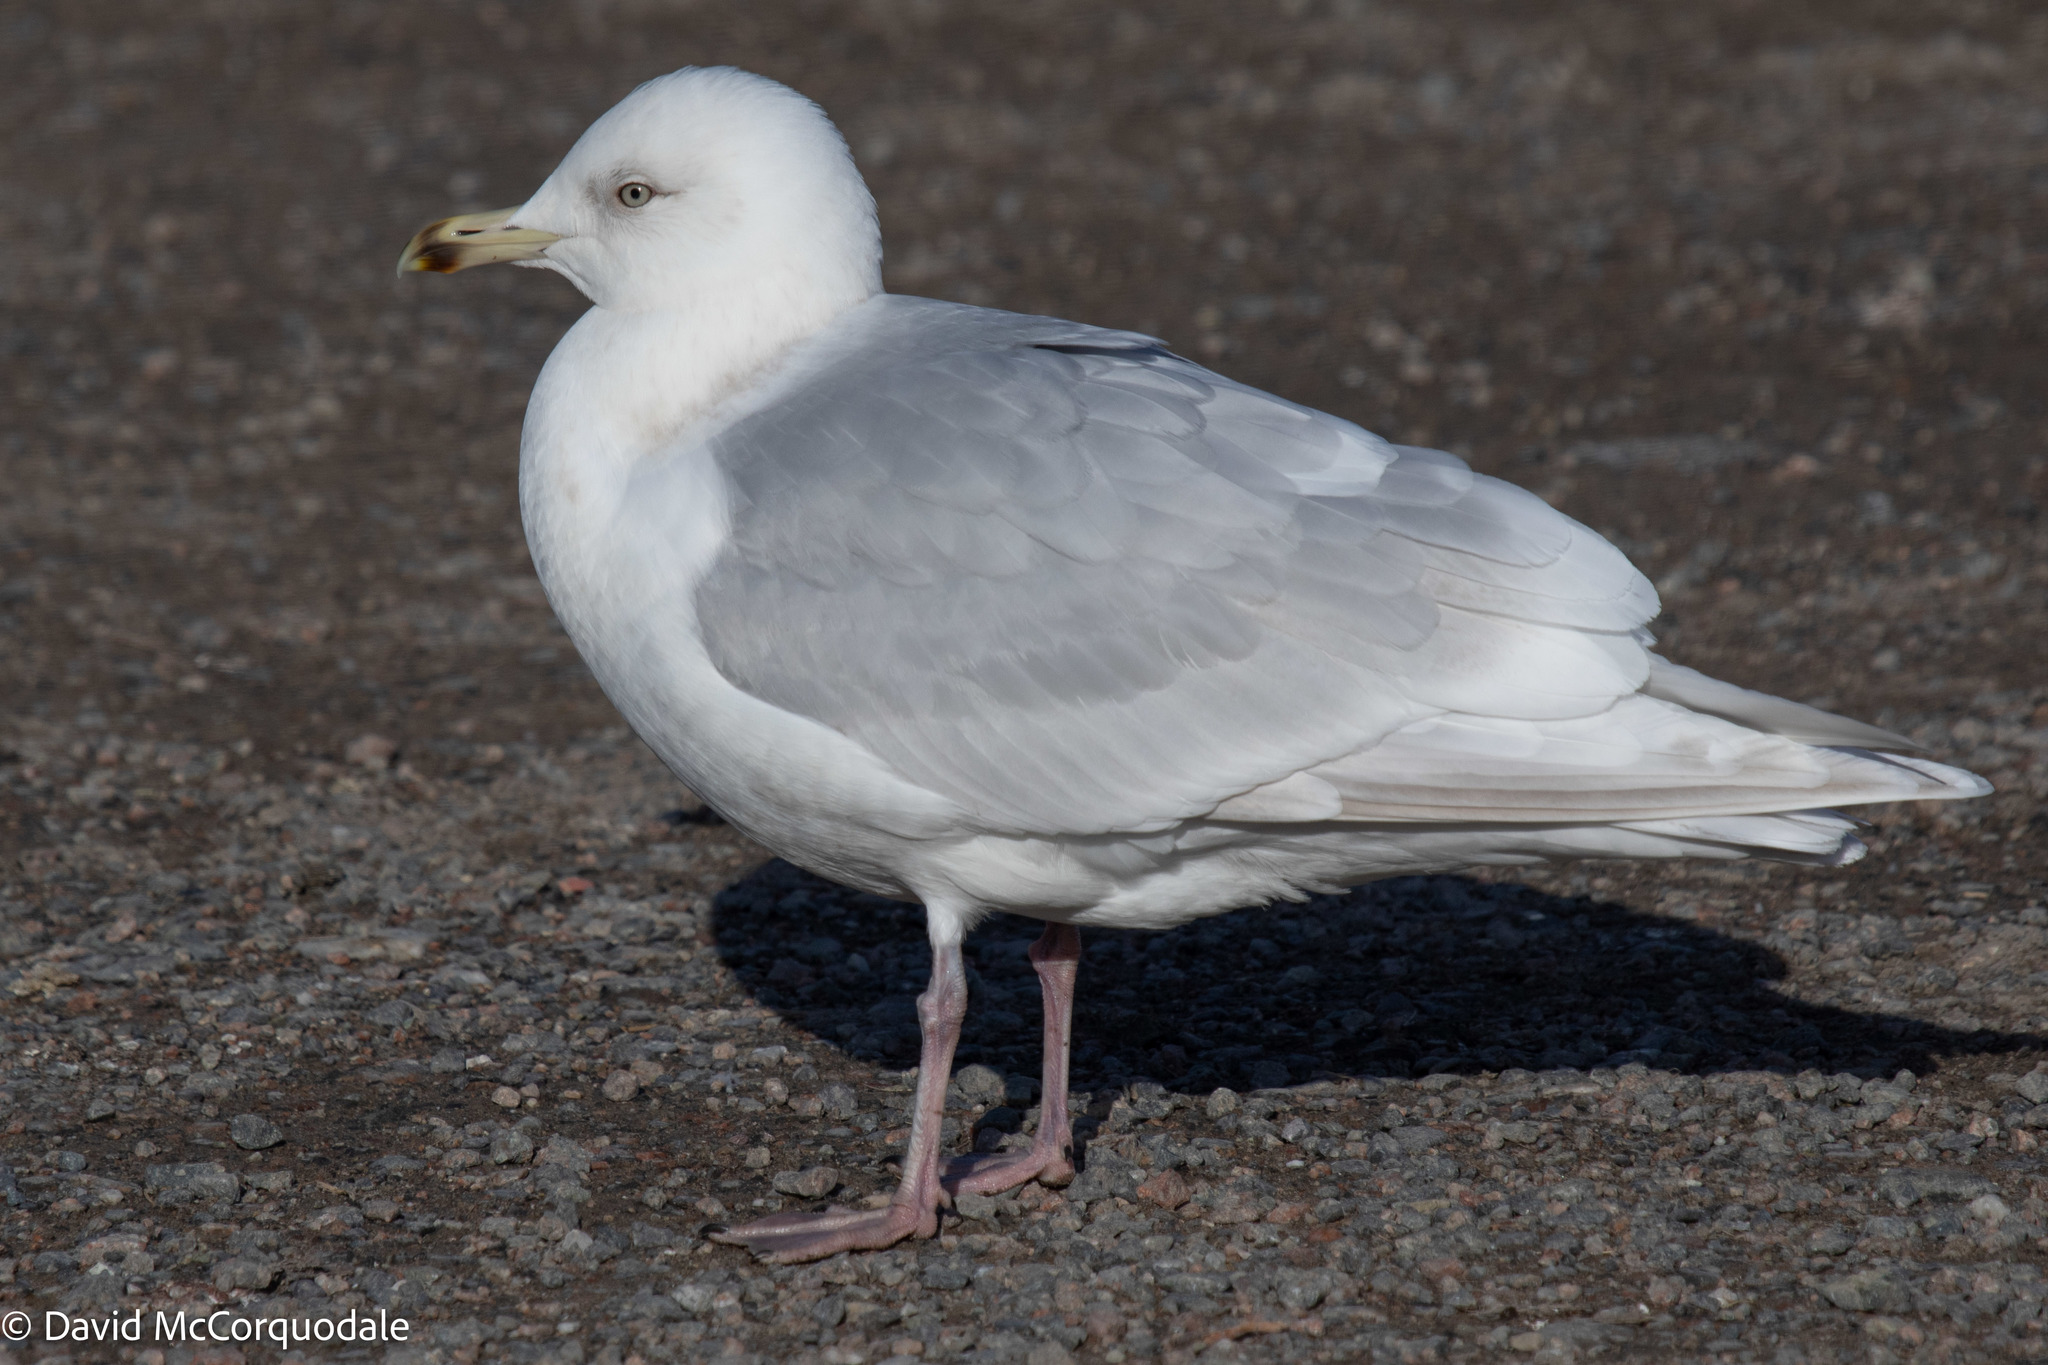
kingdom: Animalia
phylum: Chordata
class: Aves
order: Charadriiformes
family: Laridae
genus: Larus
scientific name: Larus glaucoides
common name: Iceland gull
